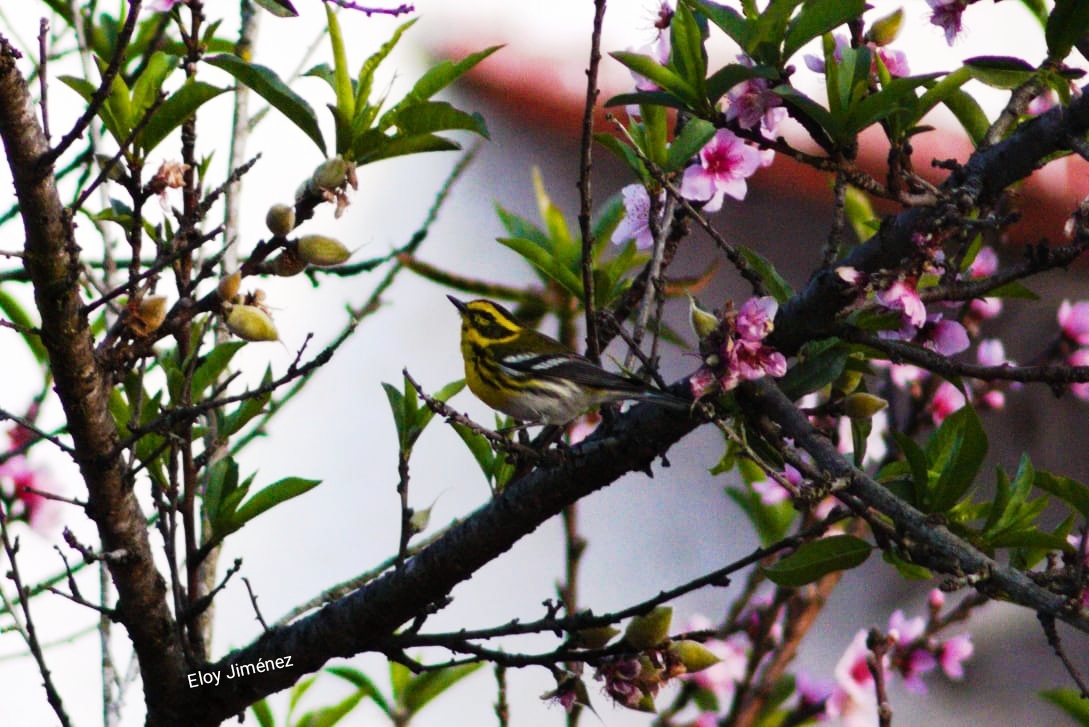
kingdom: Animalia
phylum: Chordata
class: Aves
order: Passeriformes
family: Parulidae
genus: Setophaga
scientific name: Setophaga townsendi
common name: Townsend's warbler
